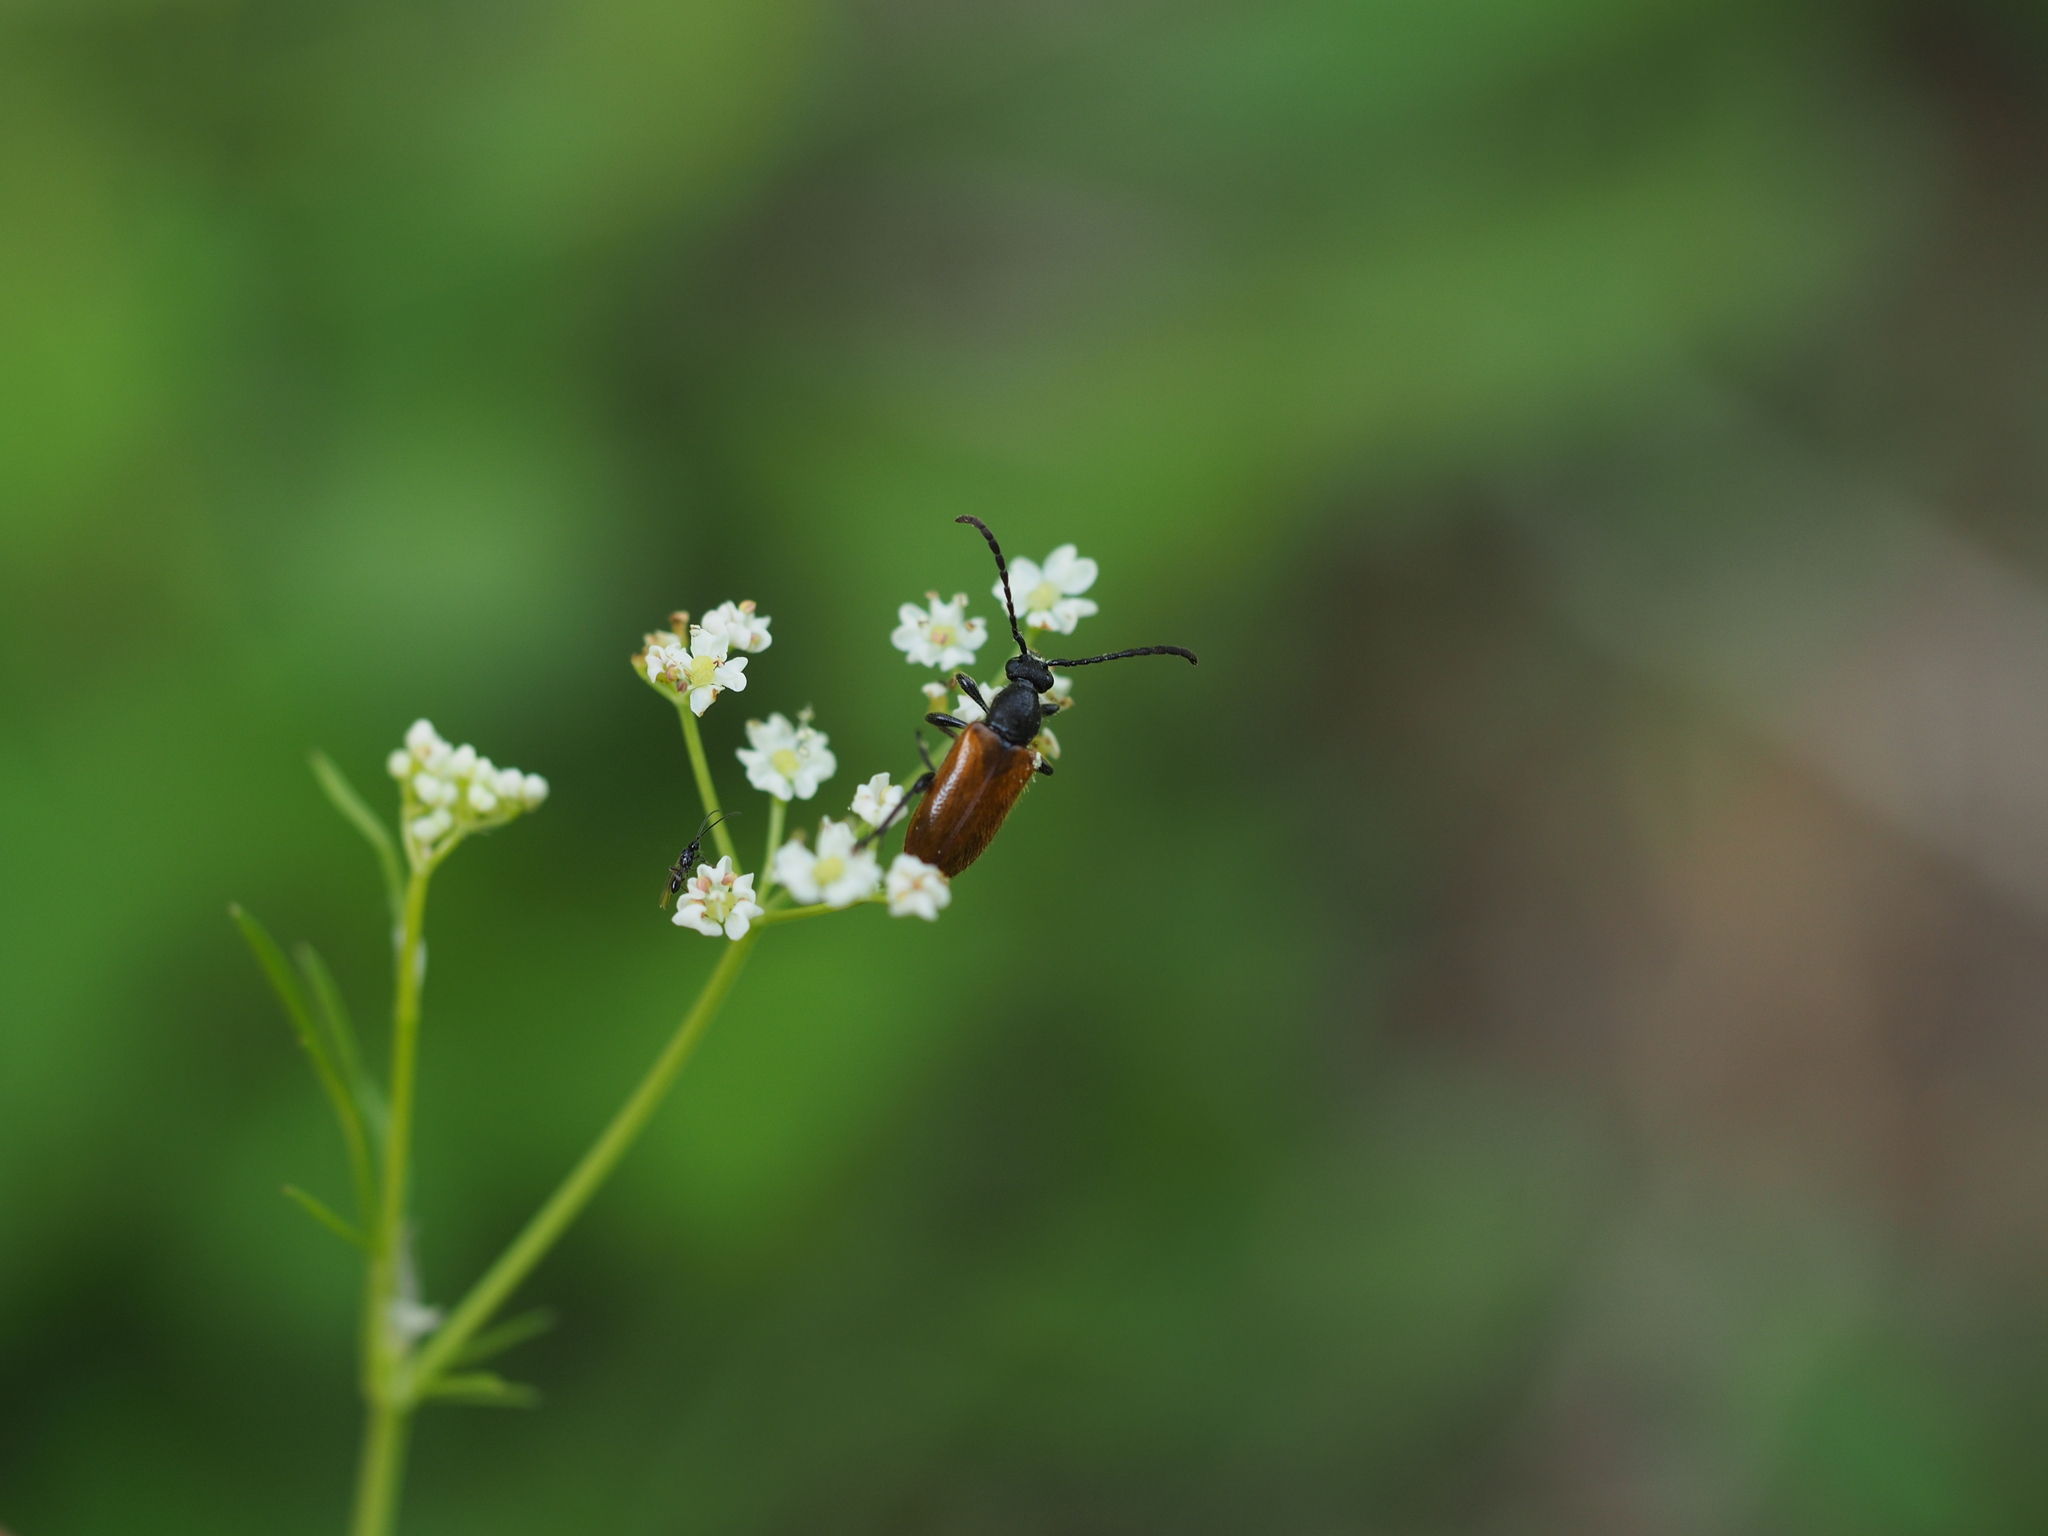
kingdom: Animalia
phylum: Arthropoda
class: Insecta
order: Coleoptera
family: Cerambycidae
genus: Pseudovadonia
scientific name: Pseudovadonia livida
